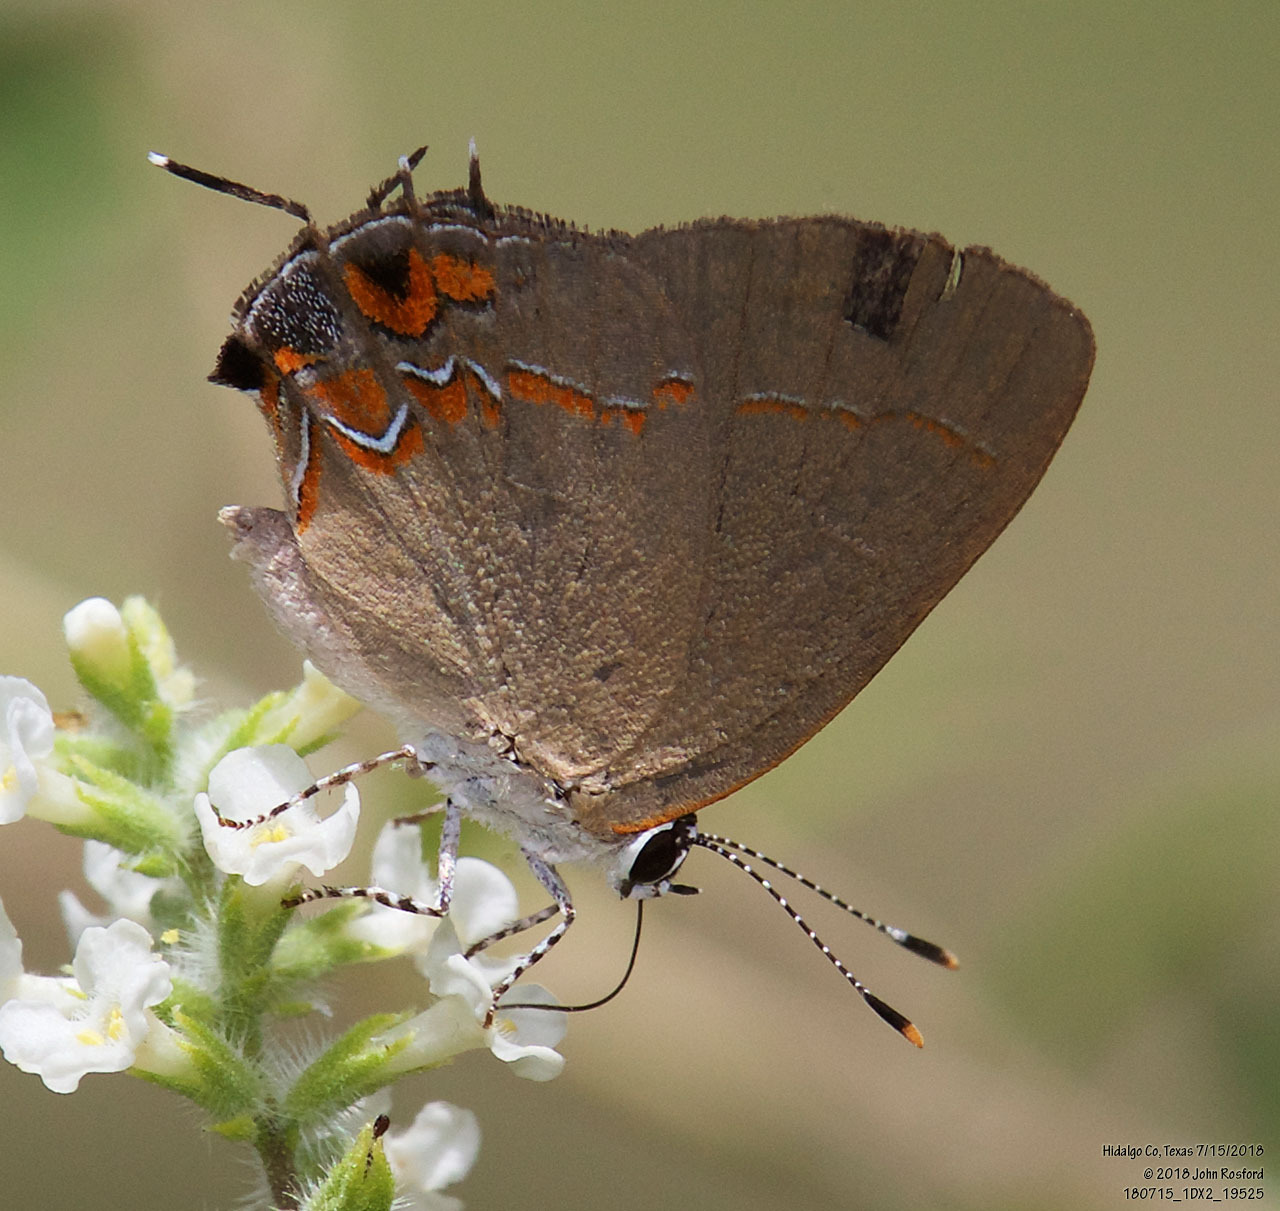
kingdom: Animalia
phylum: Arthropoda
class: Insecta
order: Lepidoptera
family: Lycaenidae
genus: Calycopis
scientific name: Calycopis isobeon
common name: Dusky-blue groundstreak
